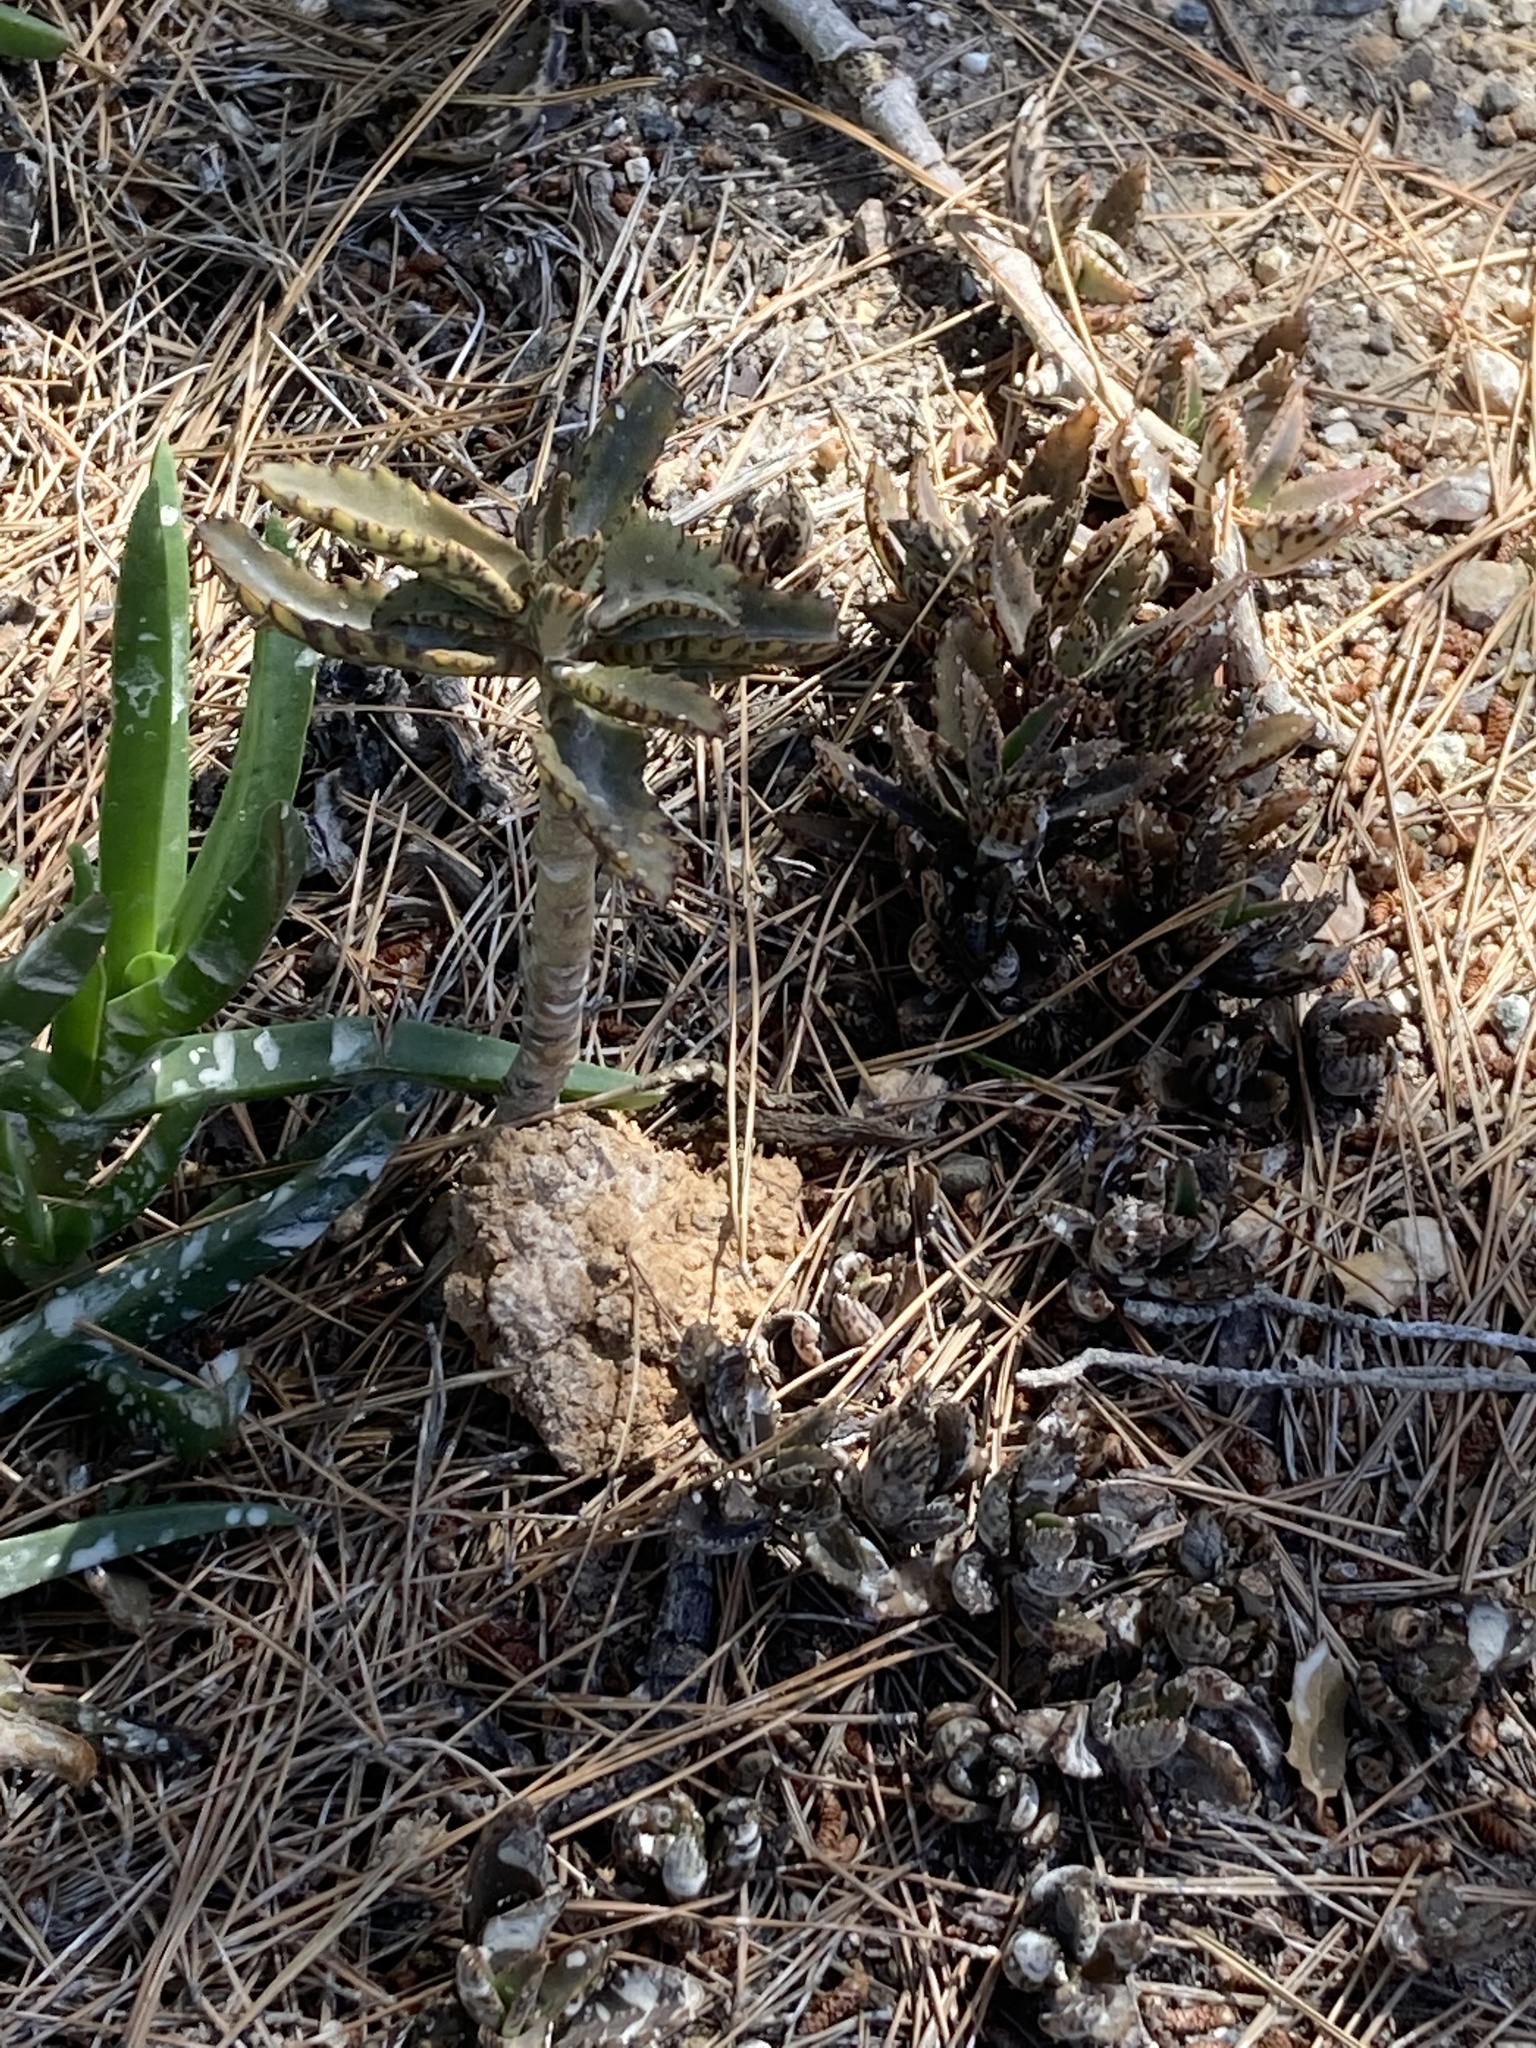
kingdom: Plantae
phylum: Tracheophyta
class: Magnoliopsida
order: Saxifragales
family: Crassulaceae
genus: Kalanchoe
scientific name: Kalanchoe houghtonii
